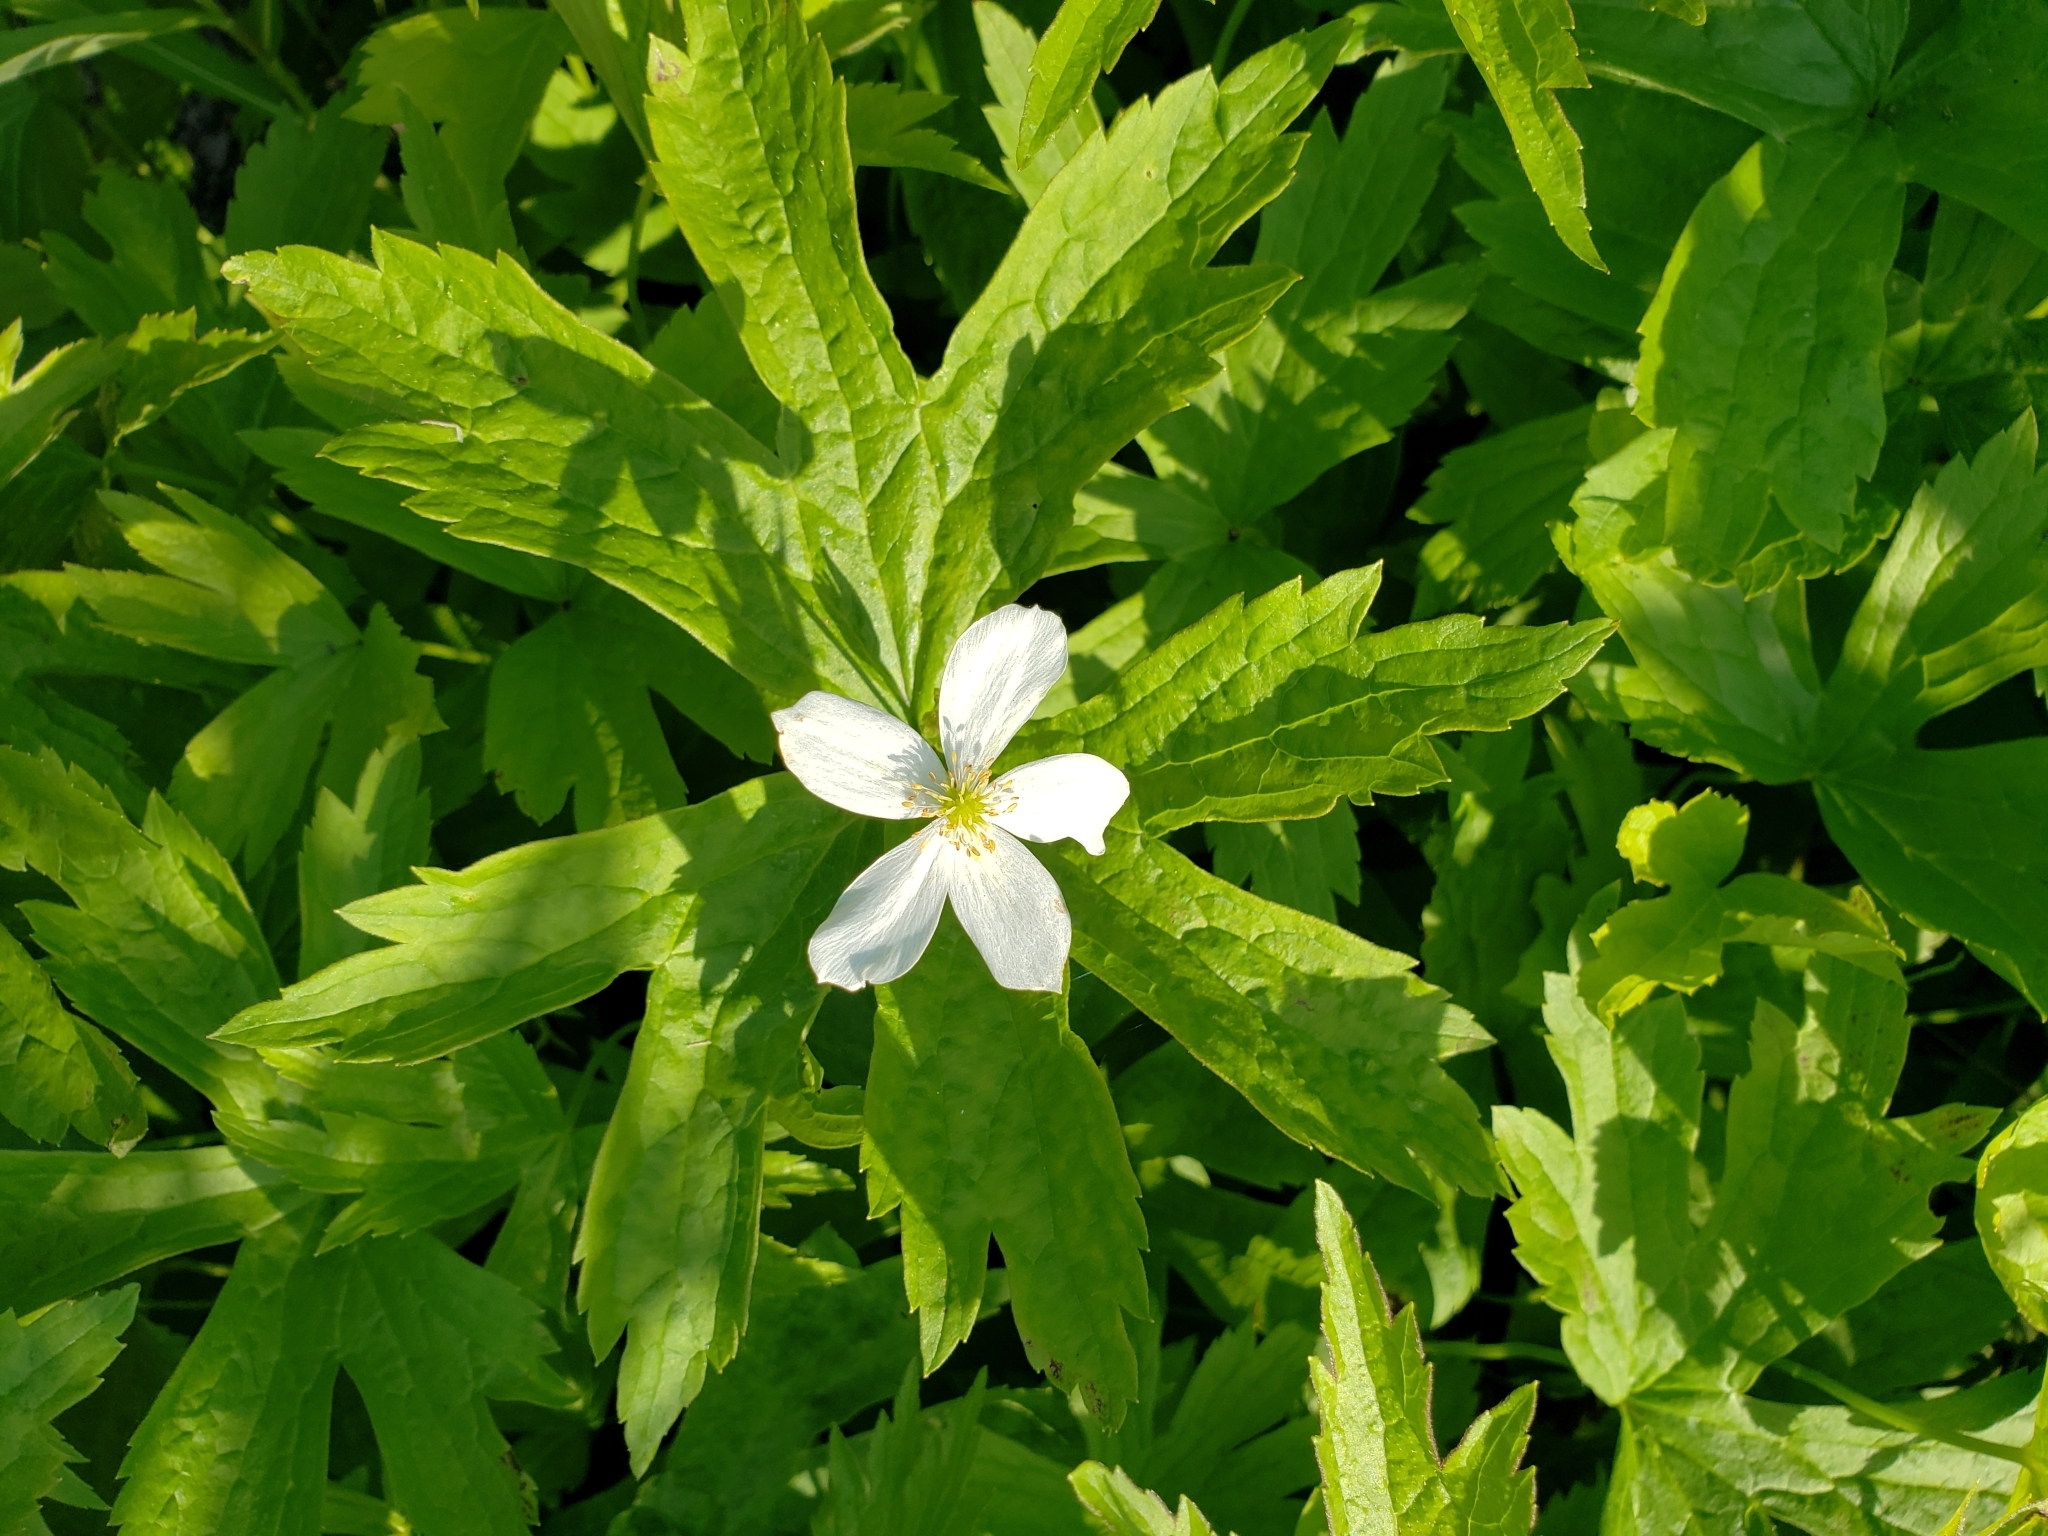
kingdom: Plantae
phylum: Tracheophyta
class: Magnoliopsida
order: Ranunculales
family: Ranunculaceae
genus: Anemonastrum
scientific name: Anemonastrum canadense
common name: Canada anemone
